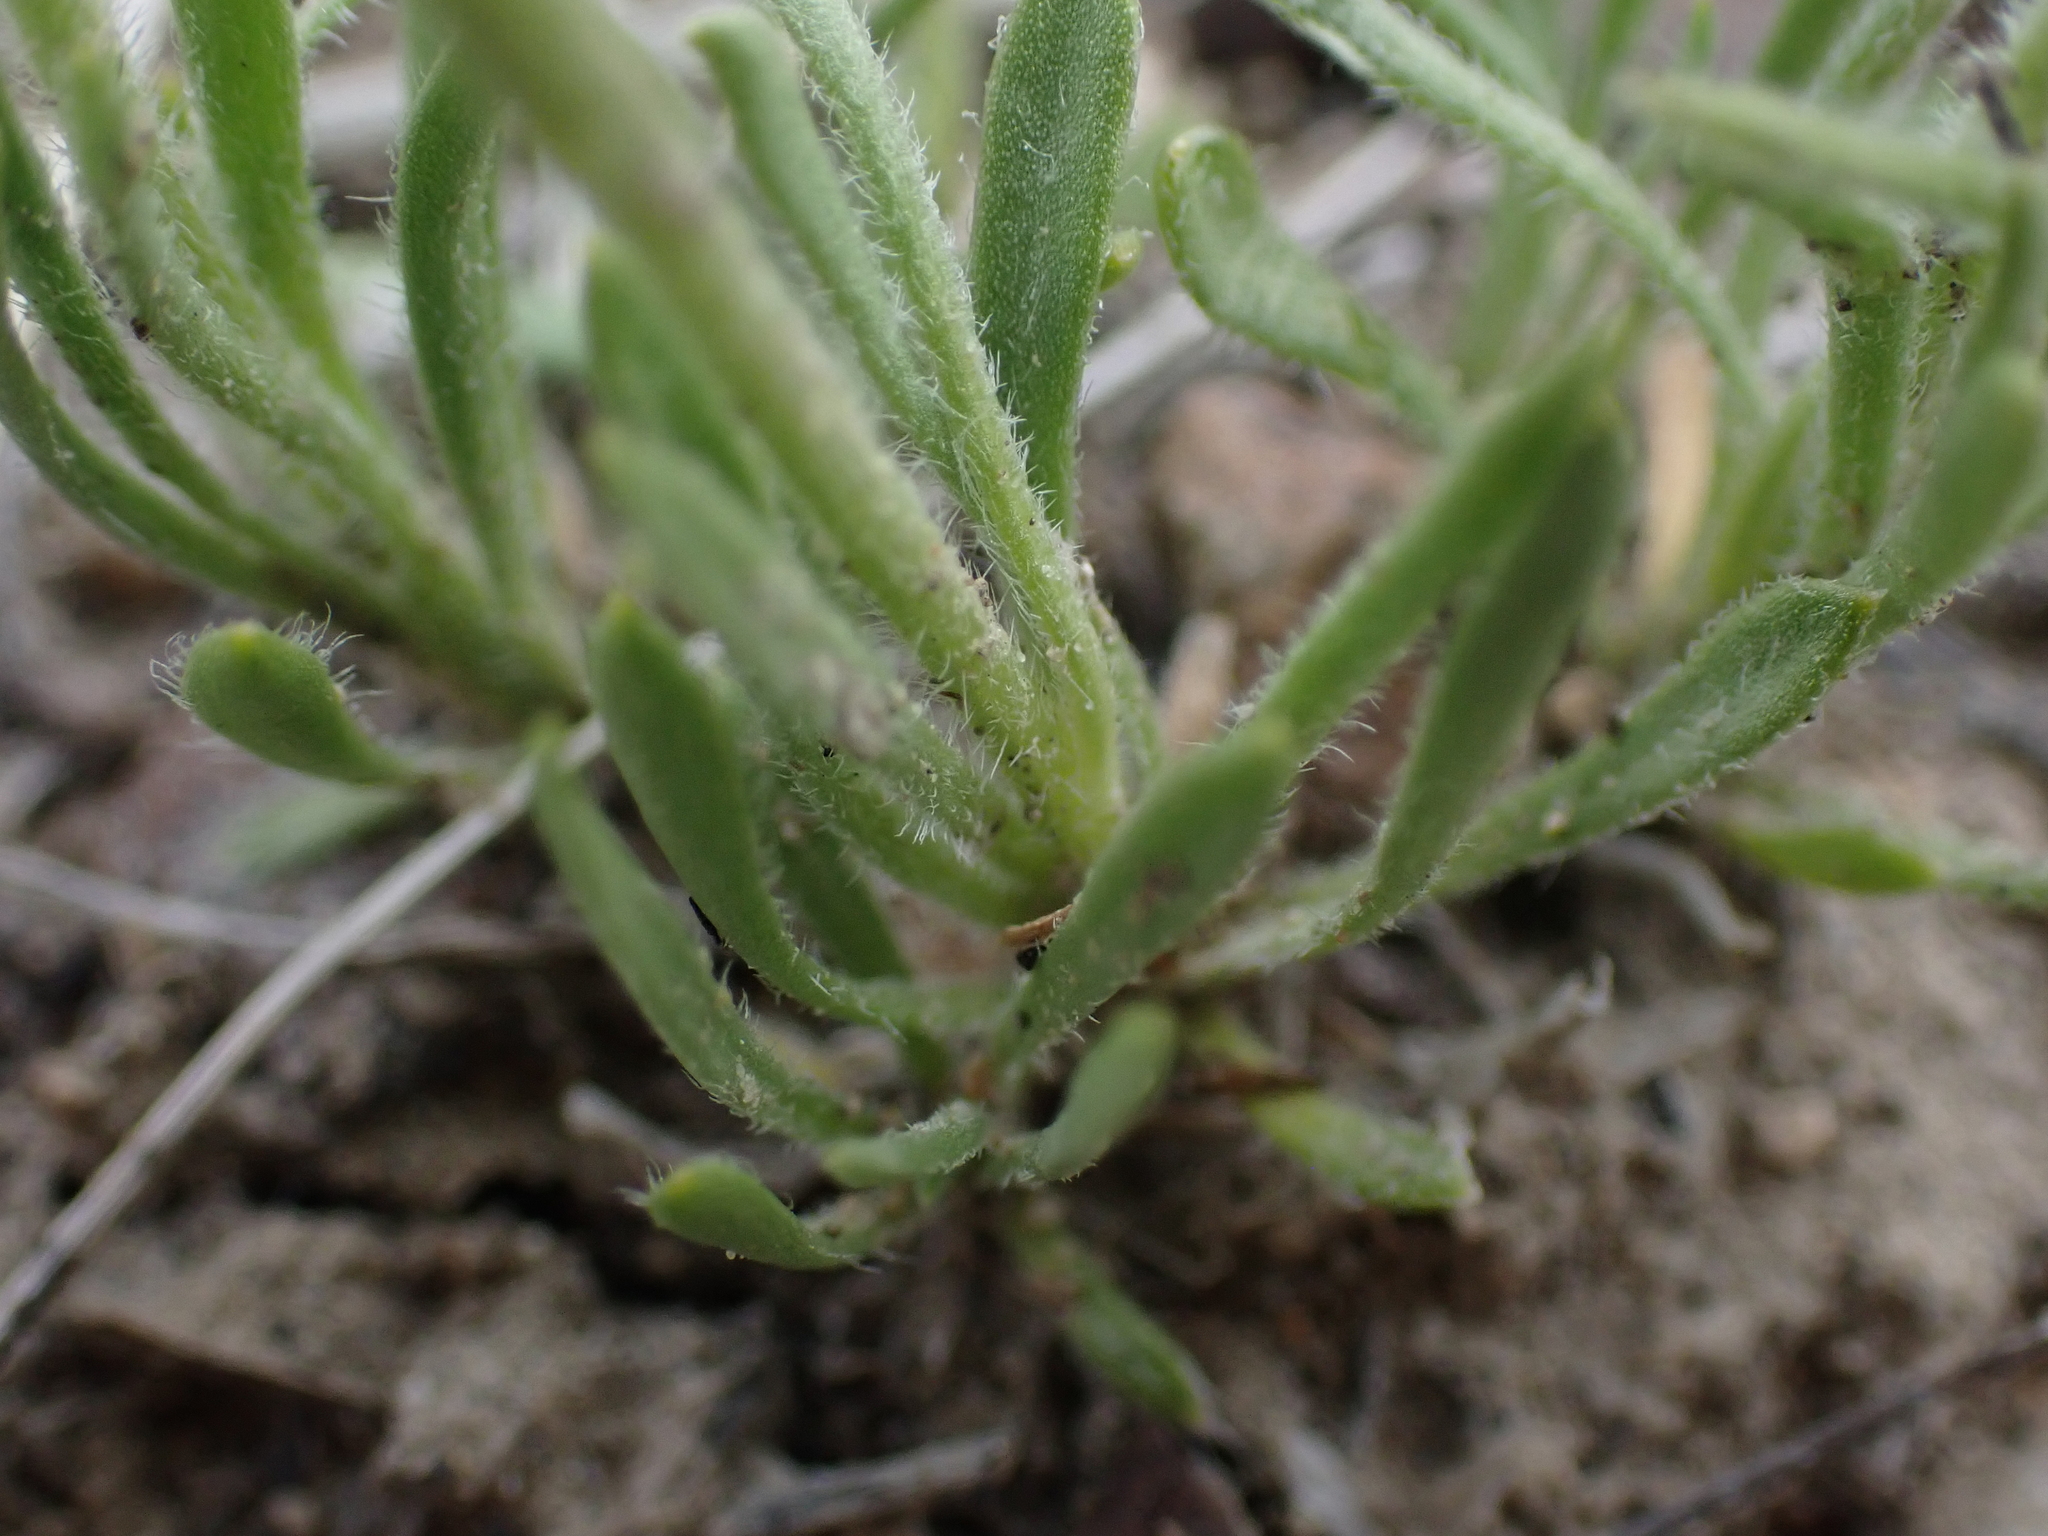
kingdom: Plantae
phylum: Tracheophyta
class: Magnoliopsida
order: Asterales
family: Asteraceae
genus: Erigeron
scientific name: Erigeron radicatus
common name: Dwarf fleabane
